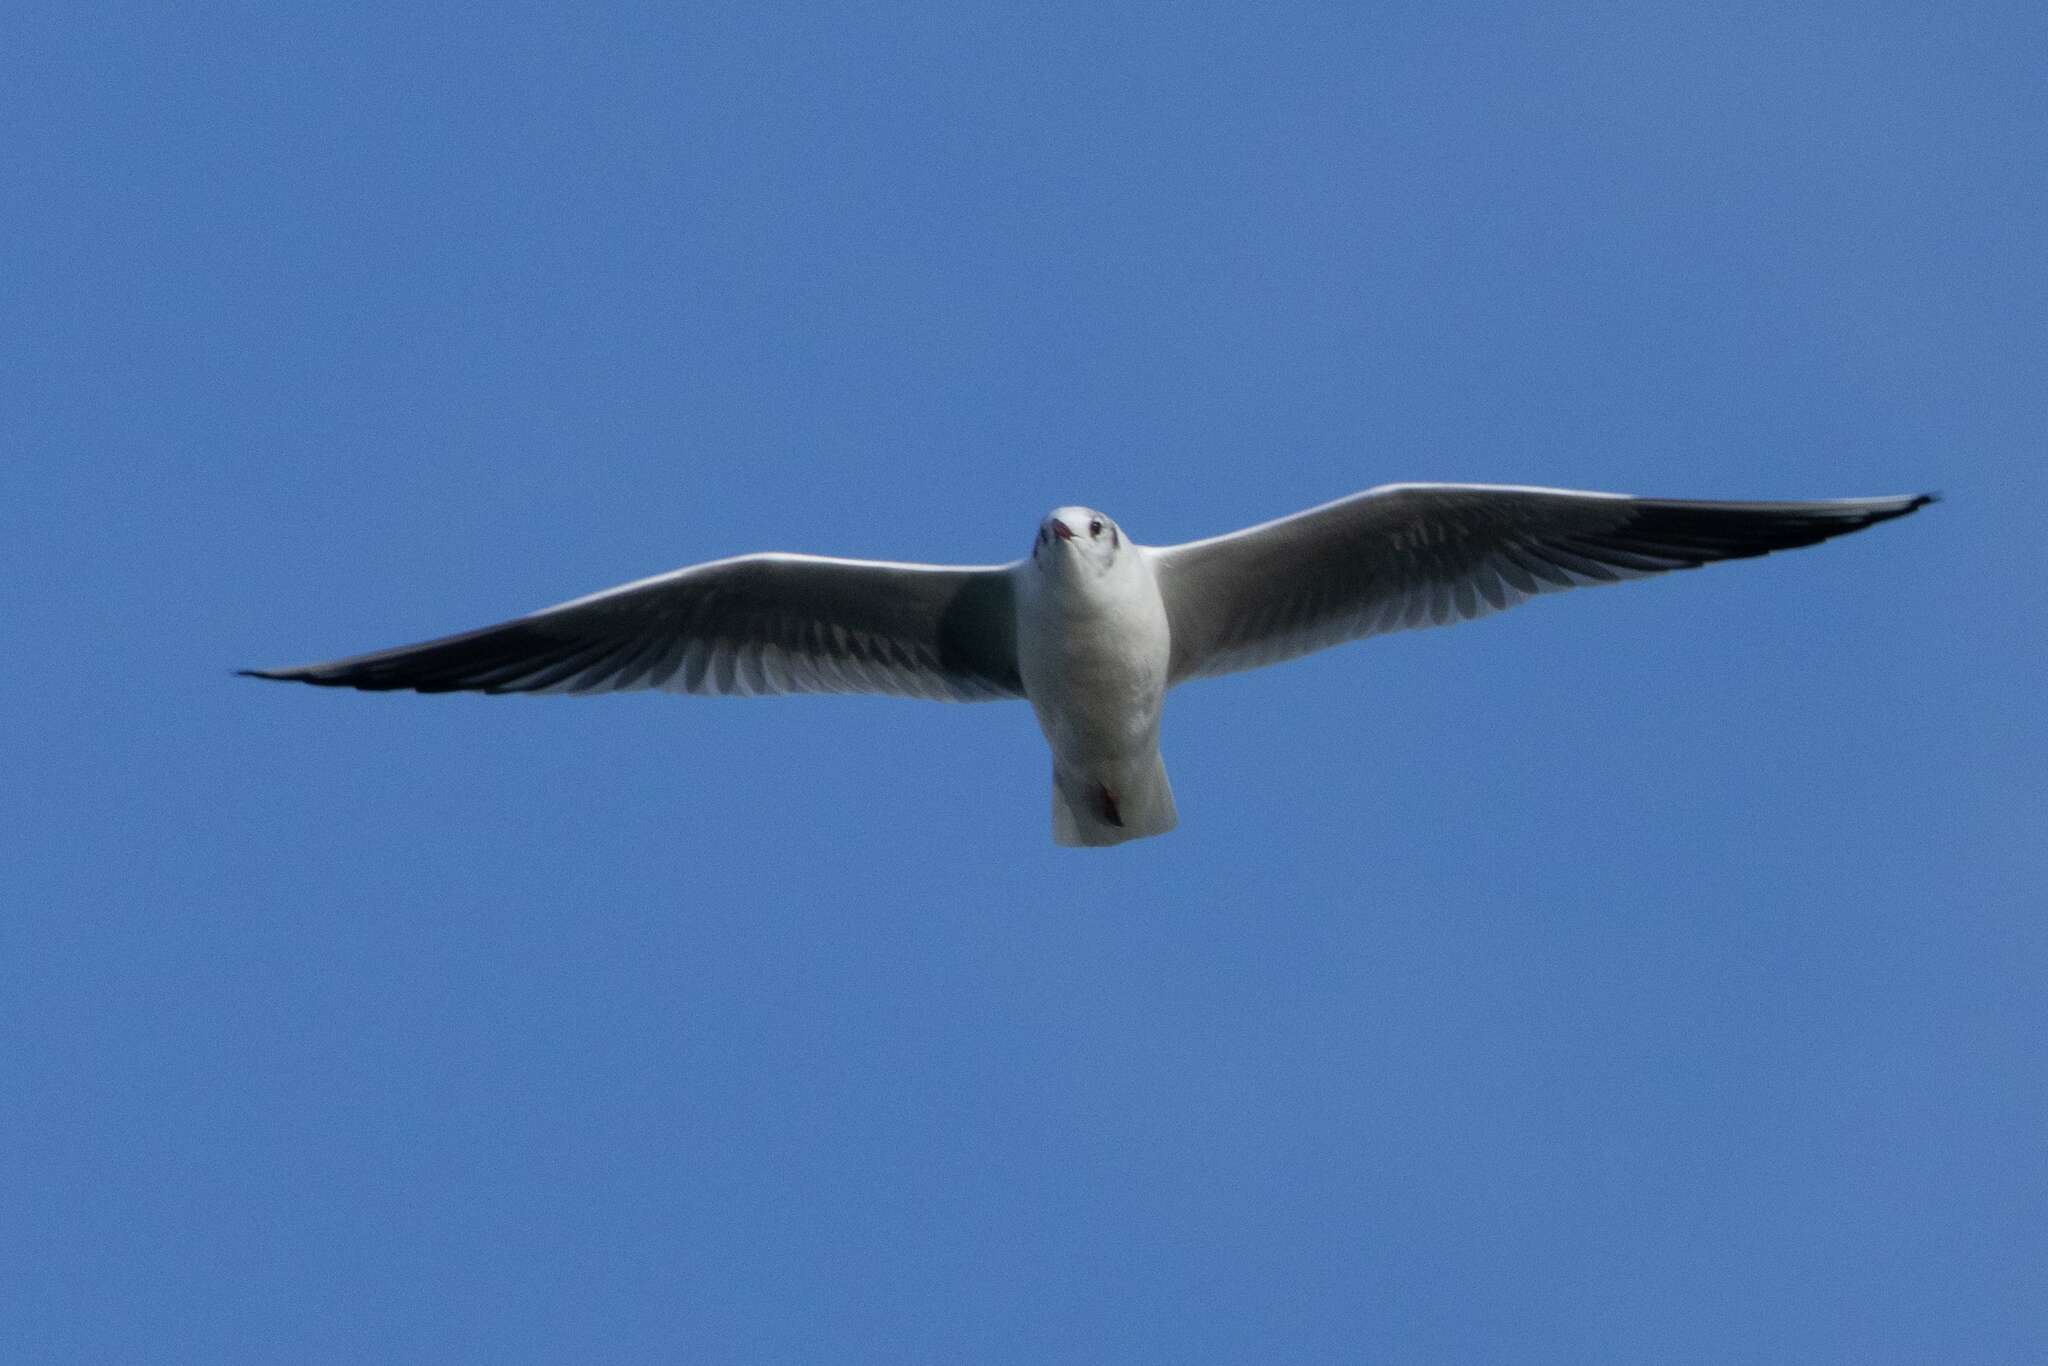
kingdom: Animalia
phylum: Chordata
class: Aves
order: Charadriiformes
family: Laridae
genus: Chroicocephalus
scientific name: Chroicocephalus ridibundus
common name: Black-headed gull
